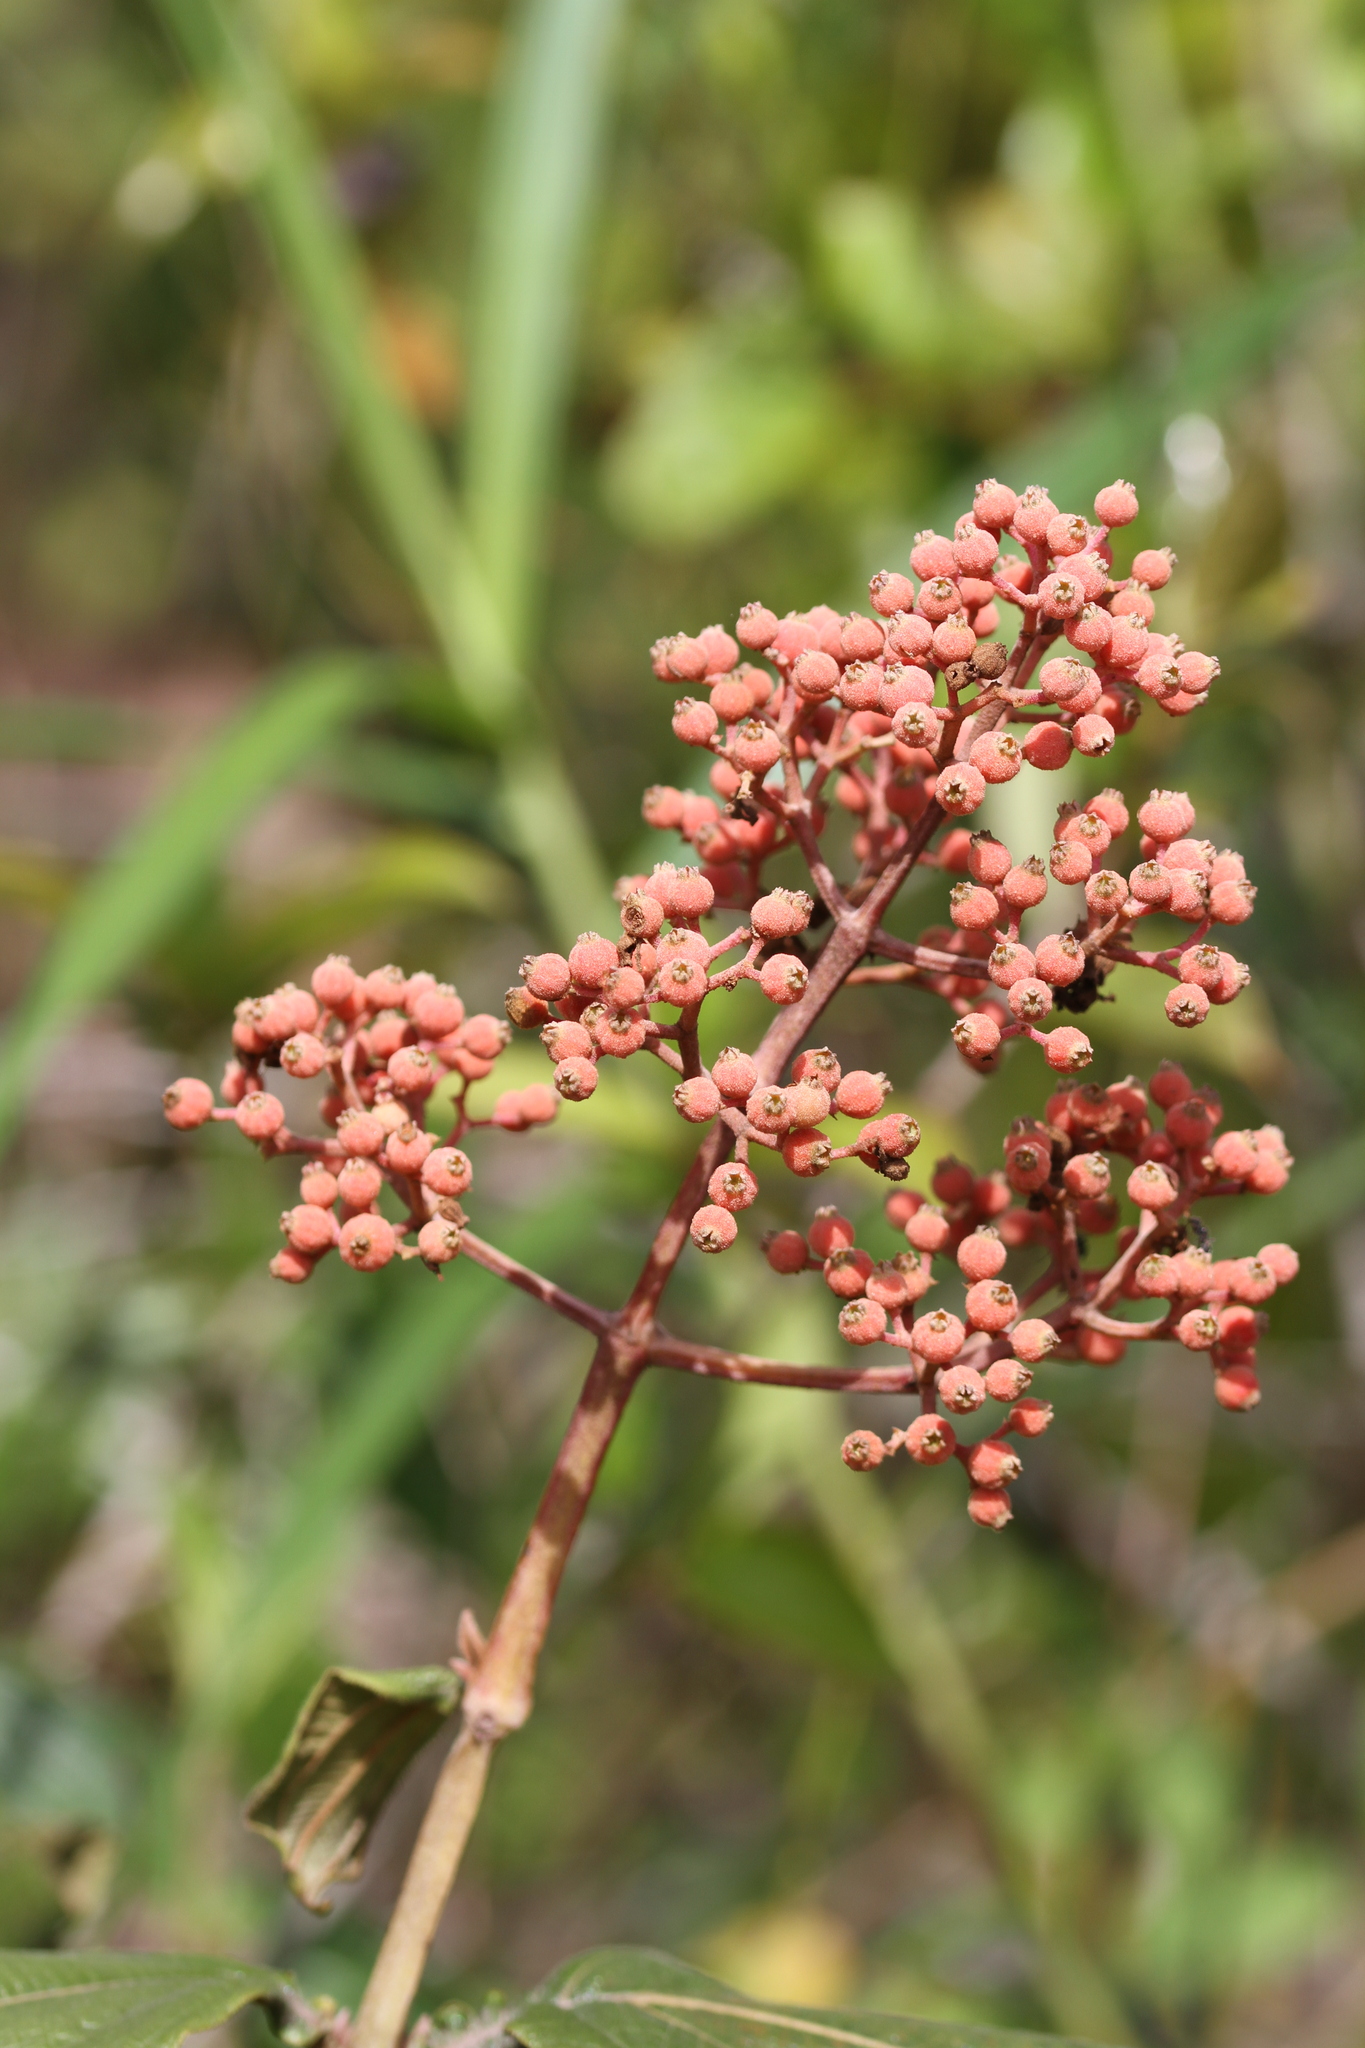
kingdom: Plantae
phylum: Tracheophyta
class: Magnoliopsida
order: Myrtales
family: Melastomataceae
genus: Miconia
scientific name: Miconia alata
